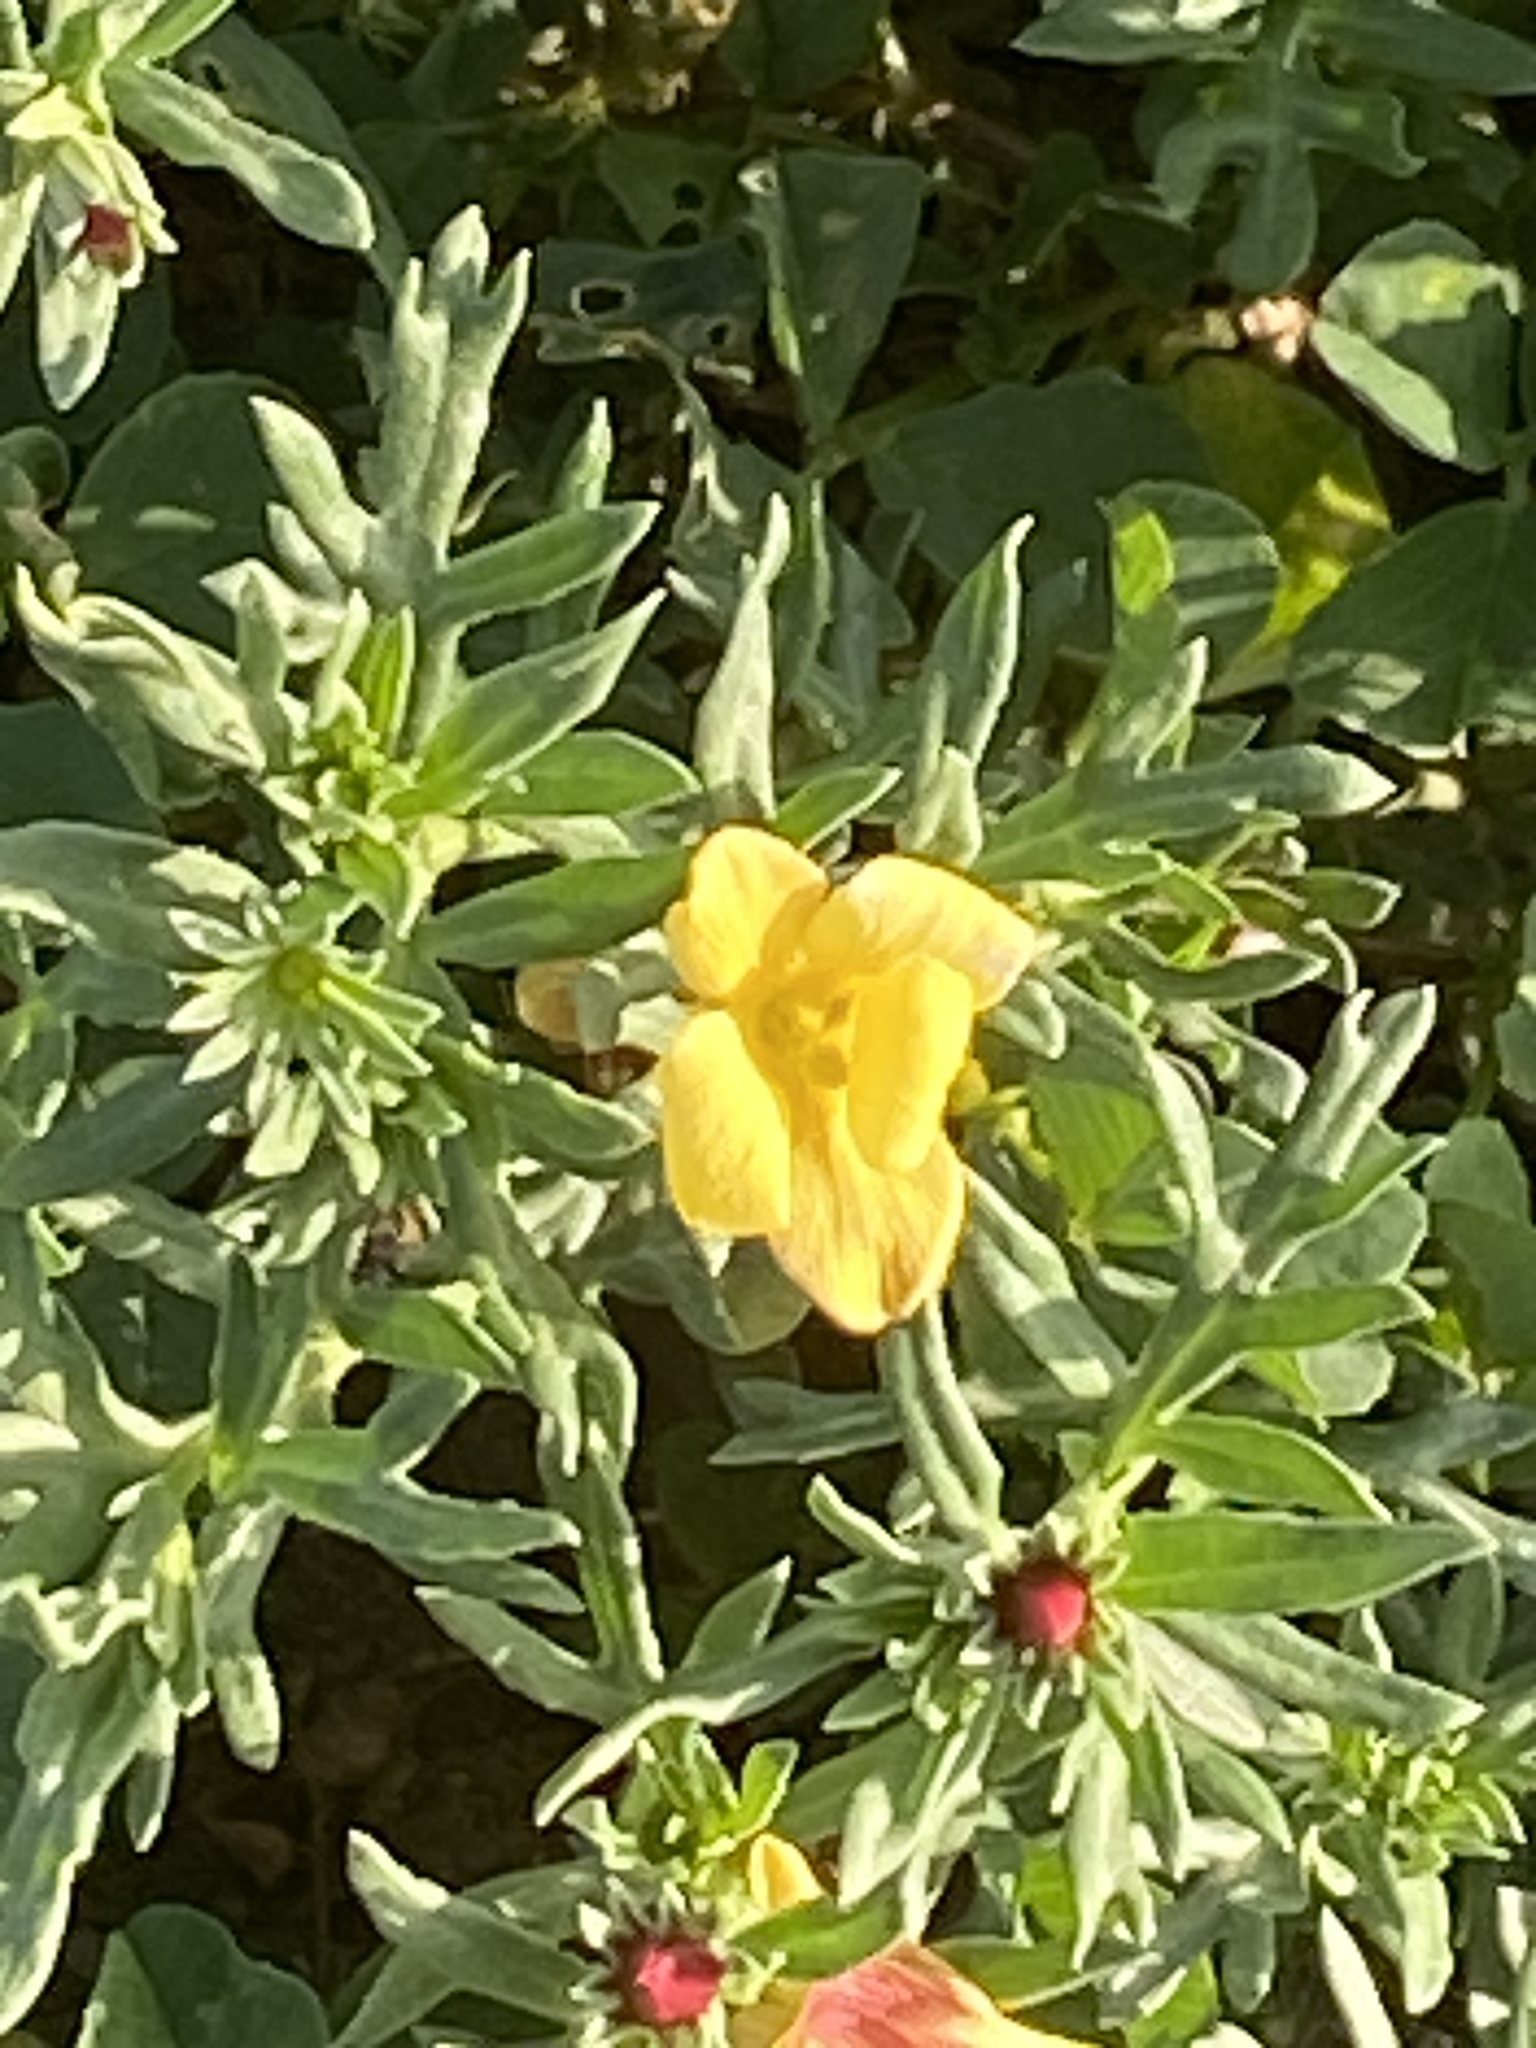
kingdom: Plantae
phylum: Tracheophyta
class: Magnoliopsida
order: Lamiales
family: Oleaceae
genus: Menodora
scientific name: Menodora heterophylla
